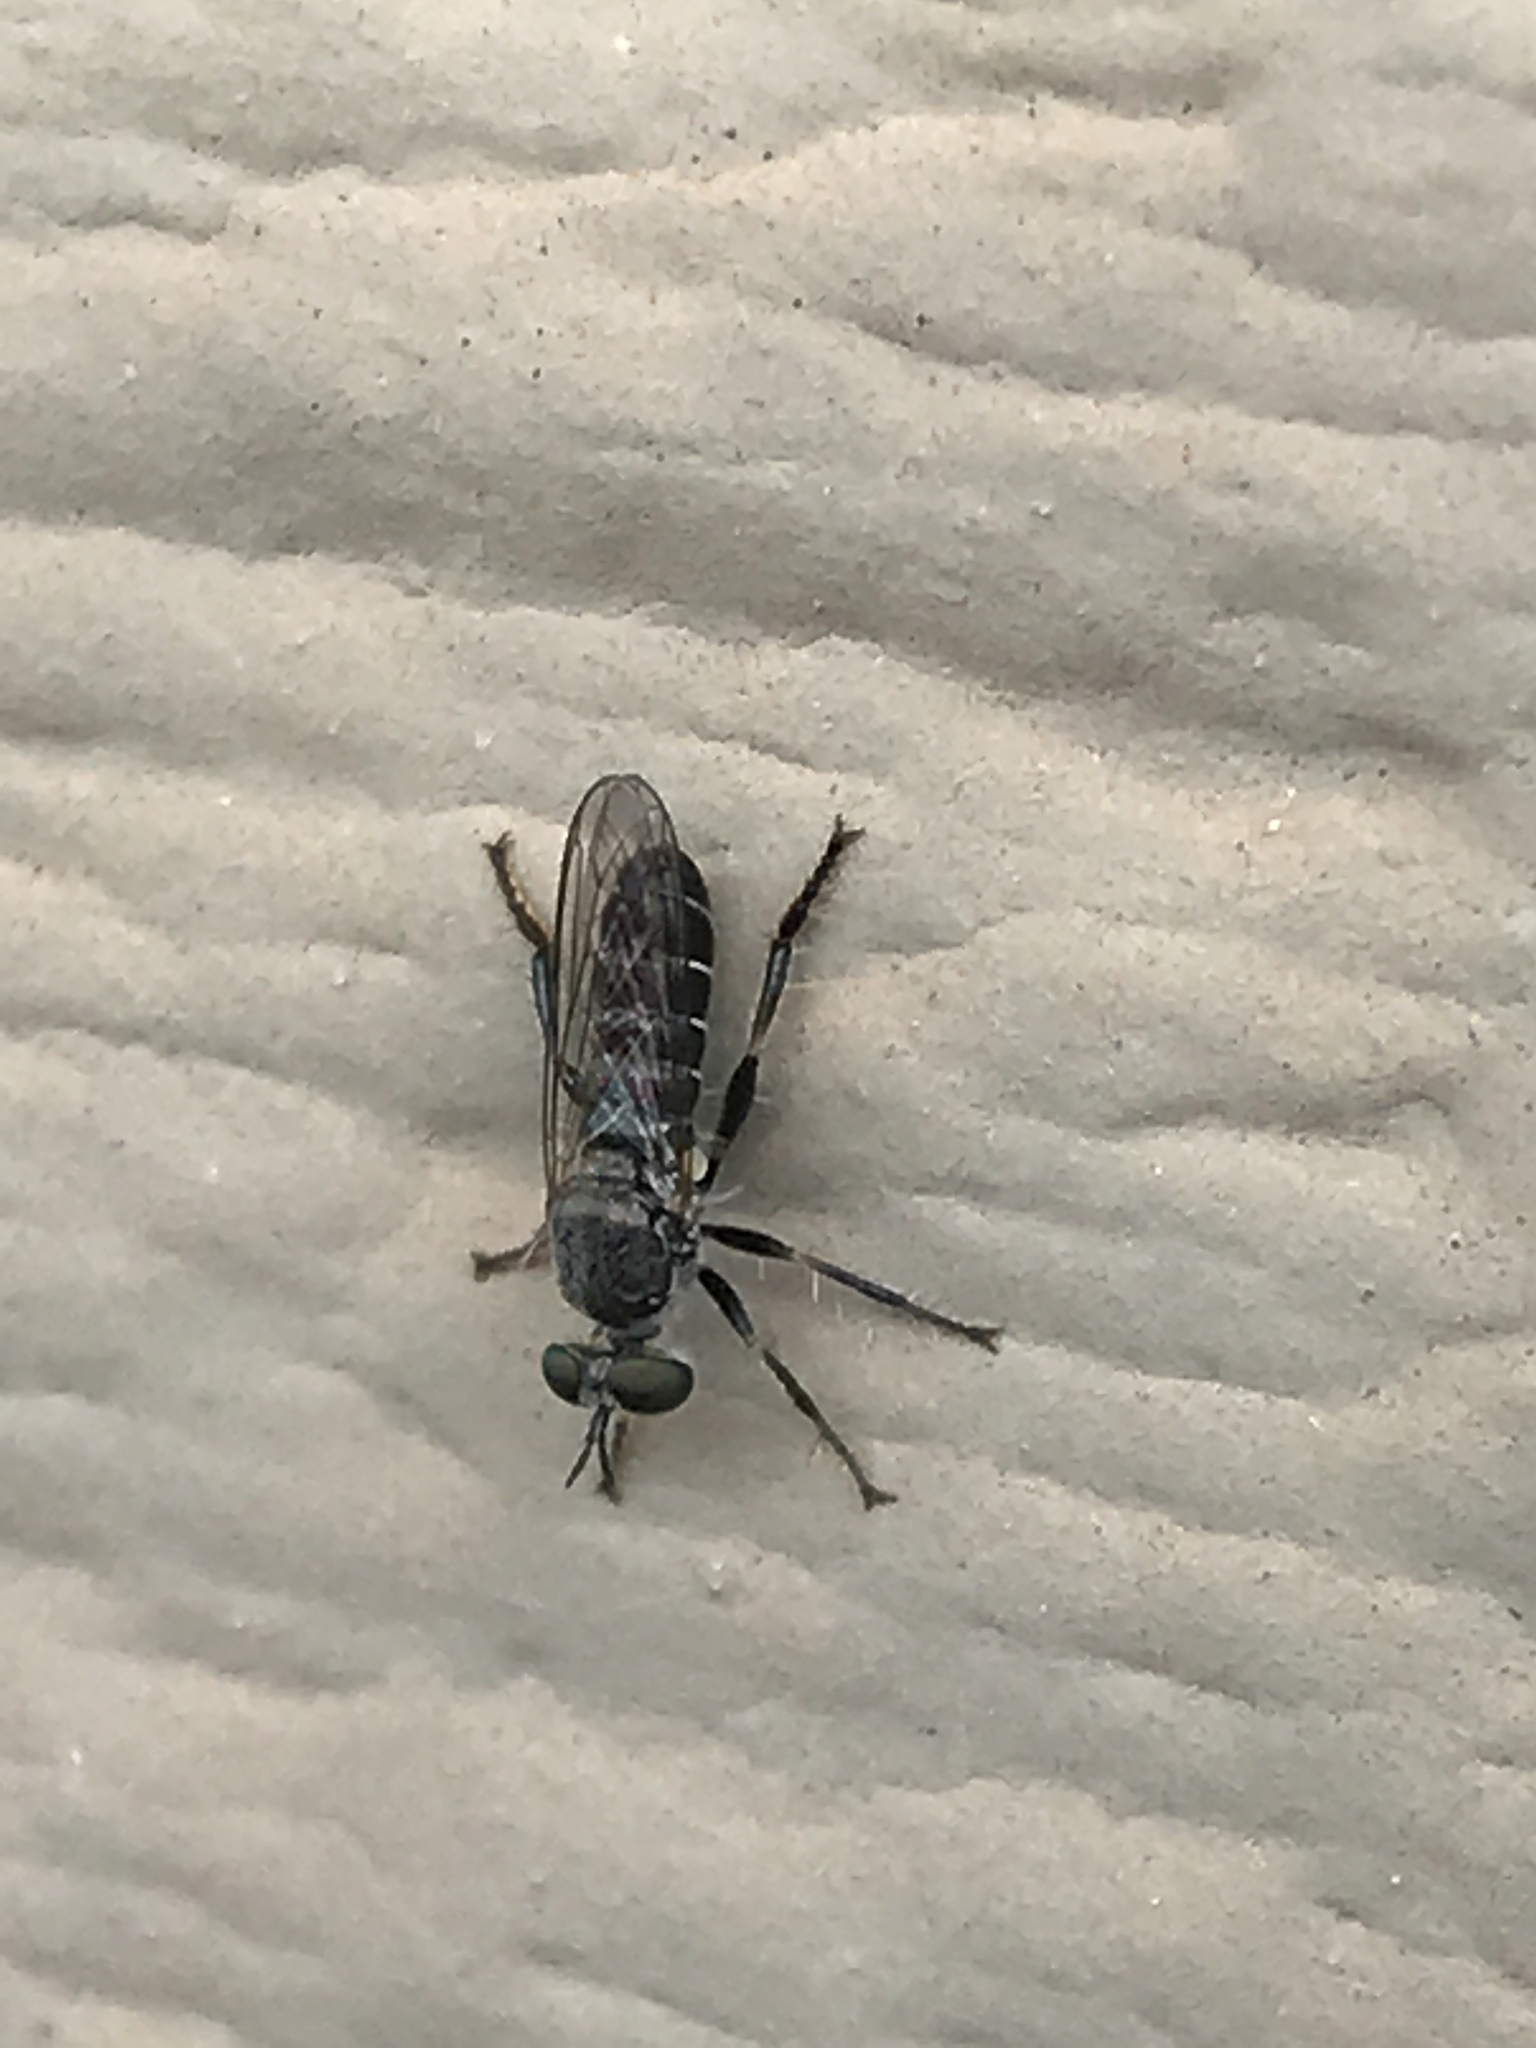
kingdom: Animalia
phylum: Arthropoda
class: Insecta
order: Diptera
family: Asilidae
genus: Atomosia
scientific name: Atomosia puella
